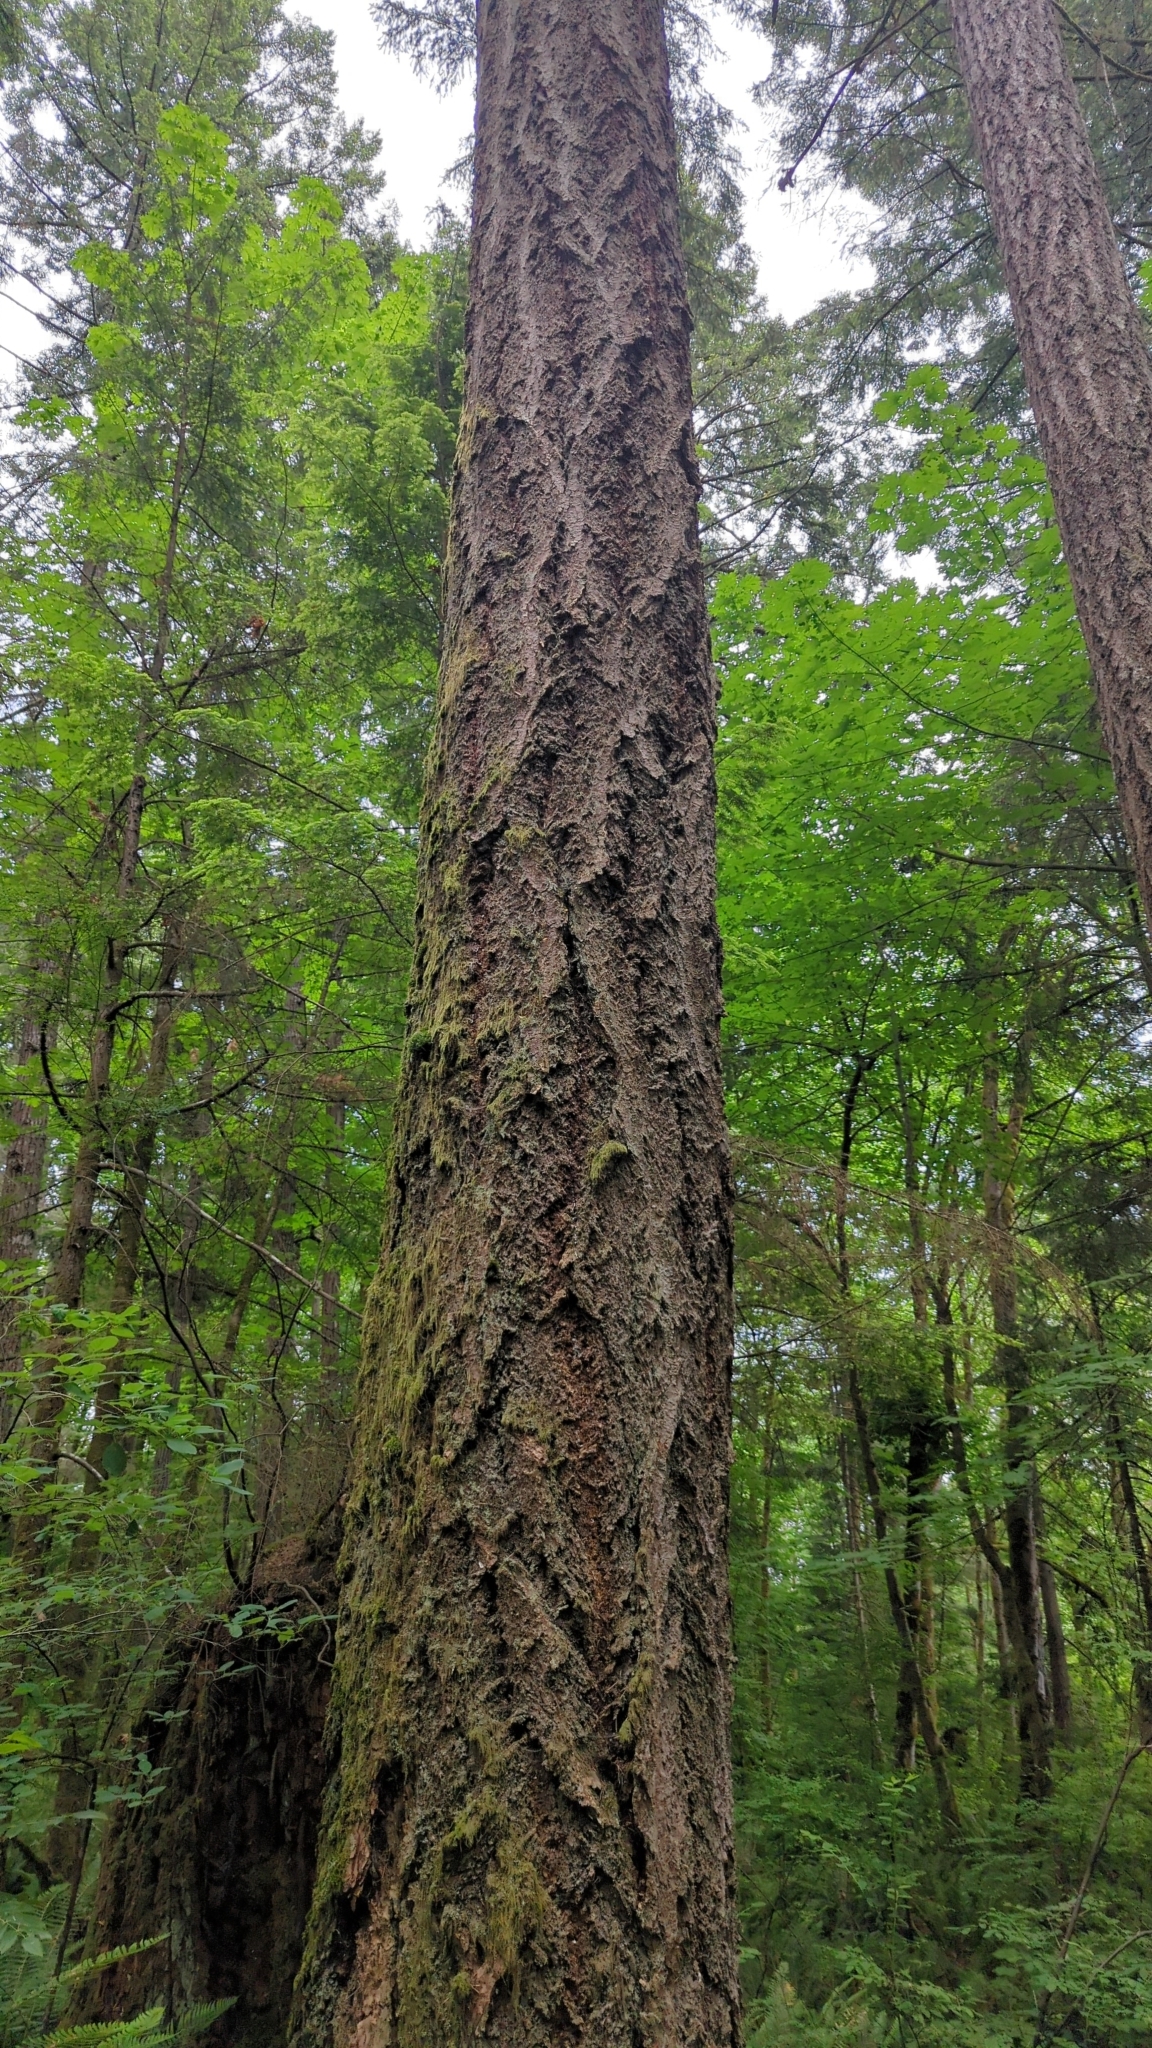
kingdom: Plantae
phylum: Tracheophyta
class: Pinopsida
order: Pinales
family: Pinaceae
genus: Pseudotsuga
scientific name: Pseudotsuga menziesii
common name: Douglas fir
